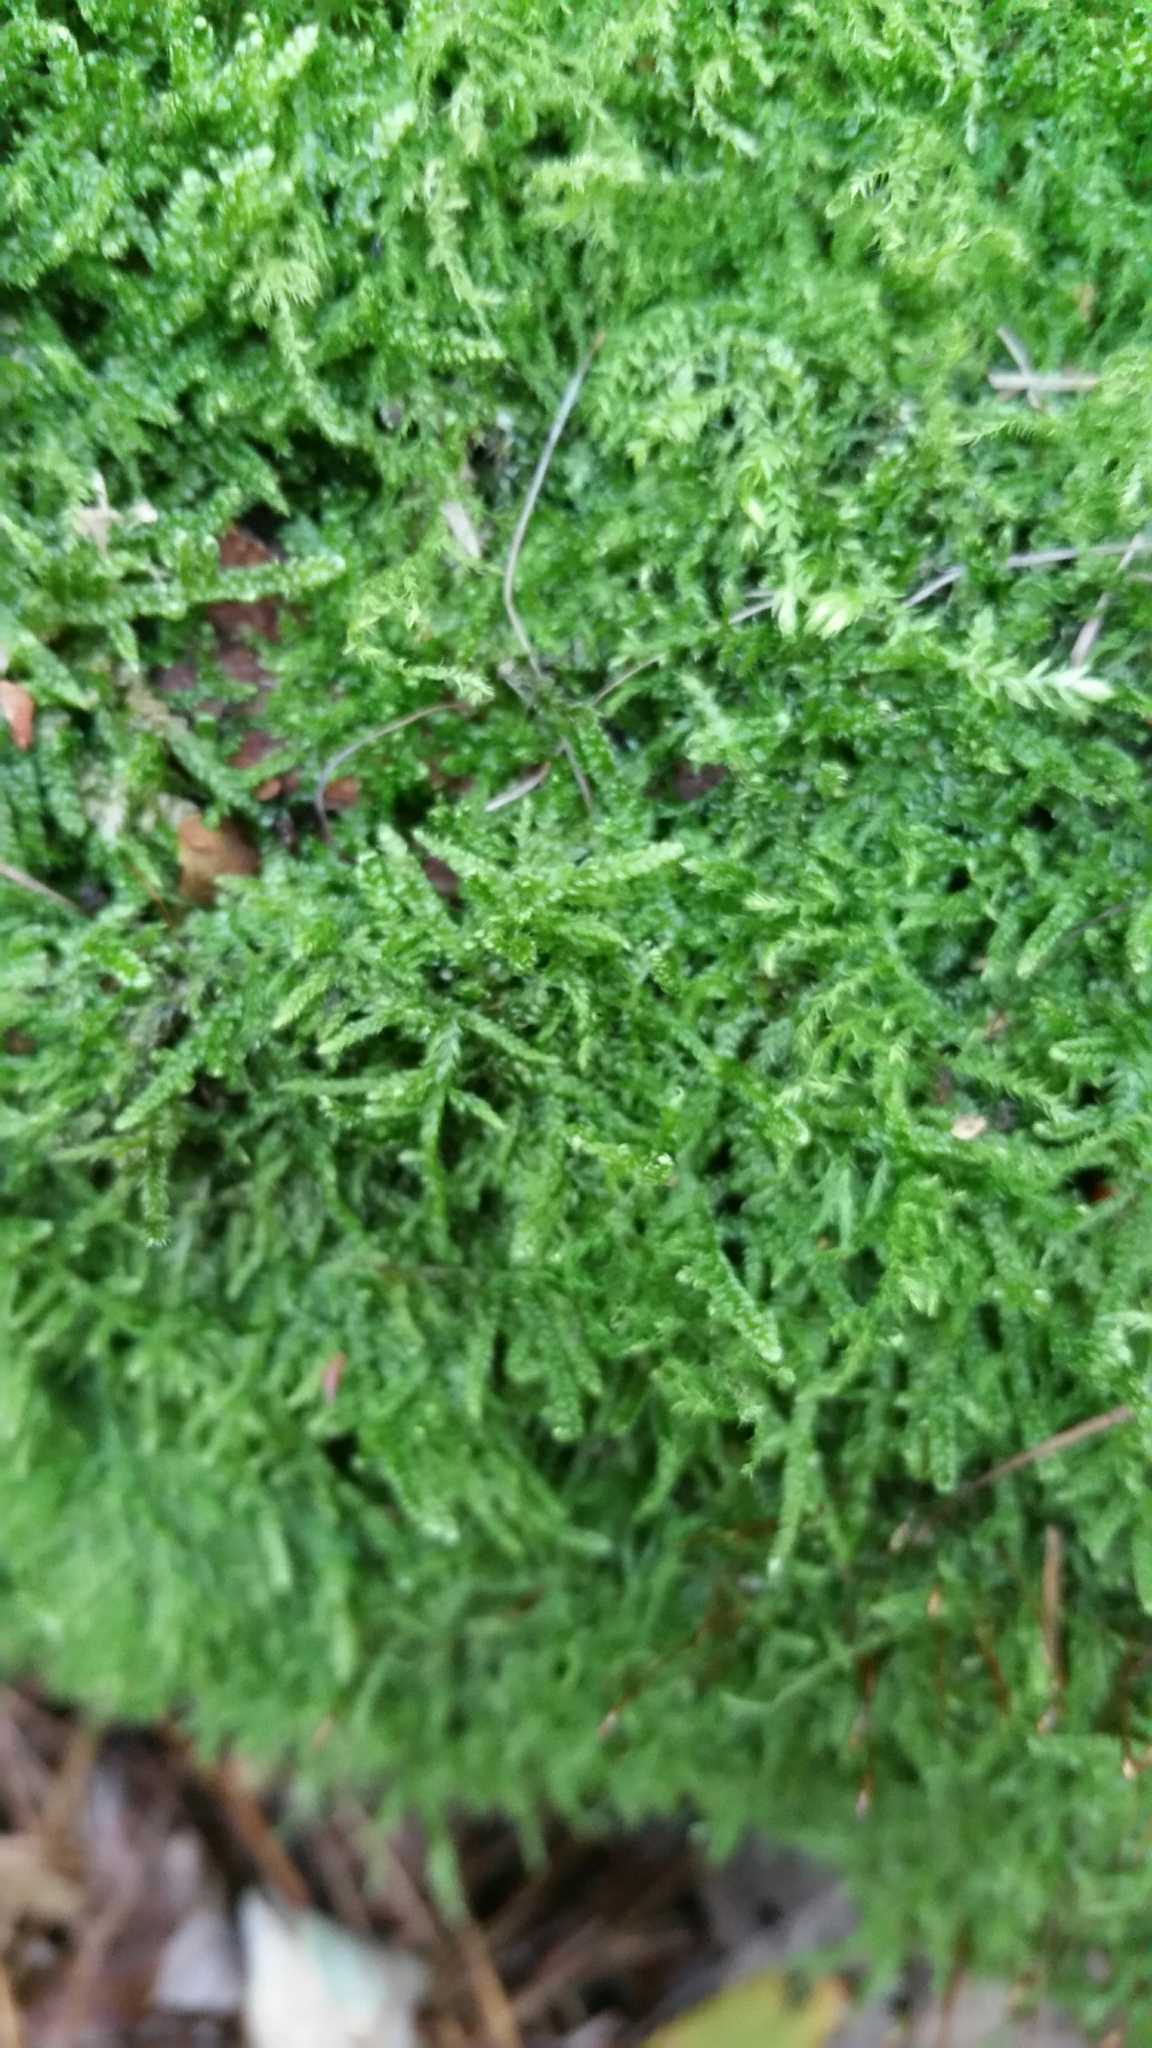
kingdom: Plantae
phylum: Bryophyta
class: Bryopsida
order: Hypnales
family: Hypnaceae
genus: Hypnum
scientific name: Hypnum cupressiforme
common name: Cypress-leaved plait-moss
